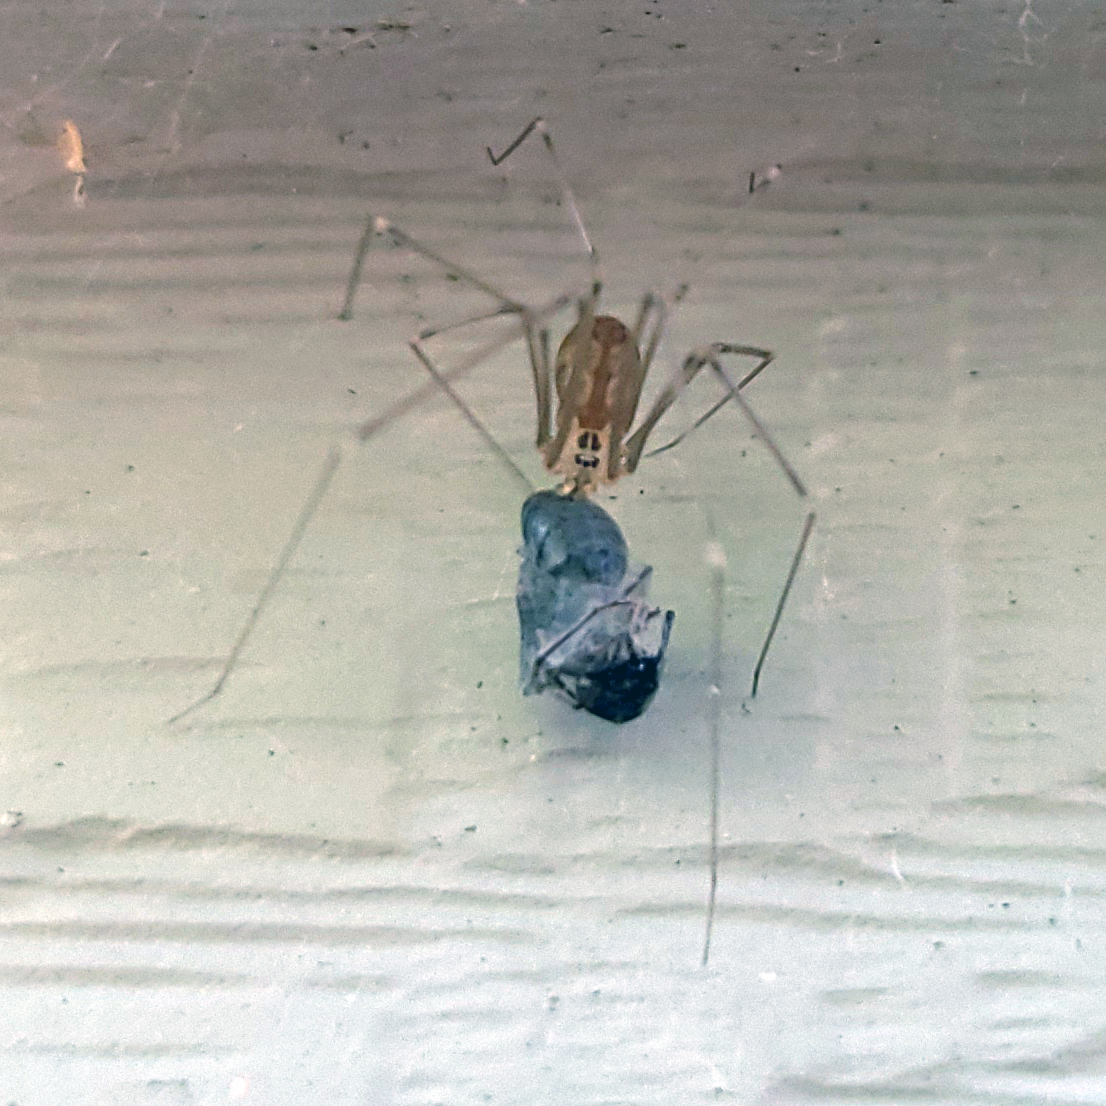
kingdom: Animalia
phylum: Arthropoda
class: Arachnida
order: Araneae
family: Pholcidae
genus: Pholcus
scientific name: Pholcus manueli
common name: Cellar spider
